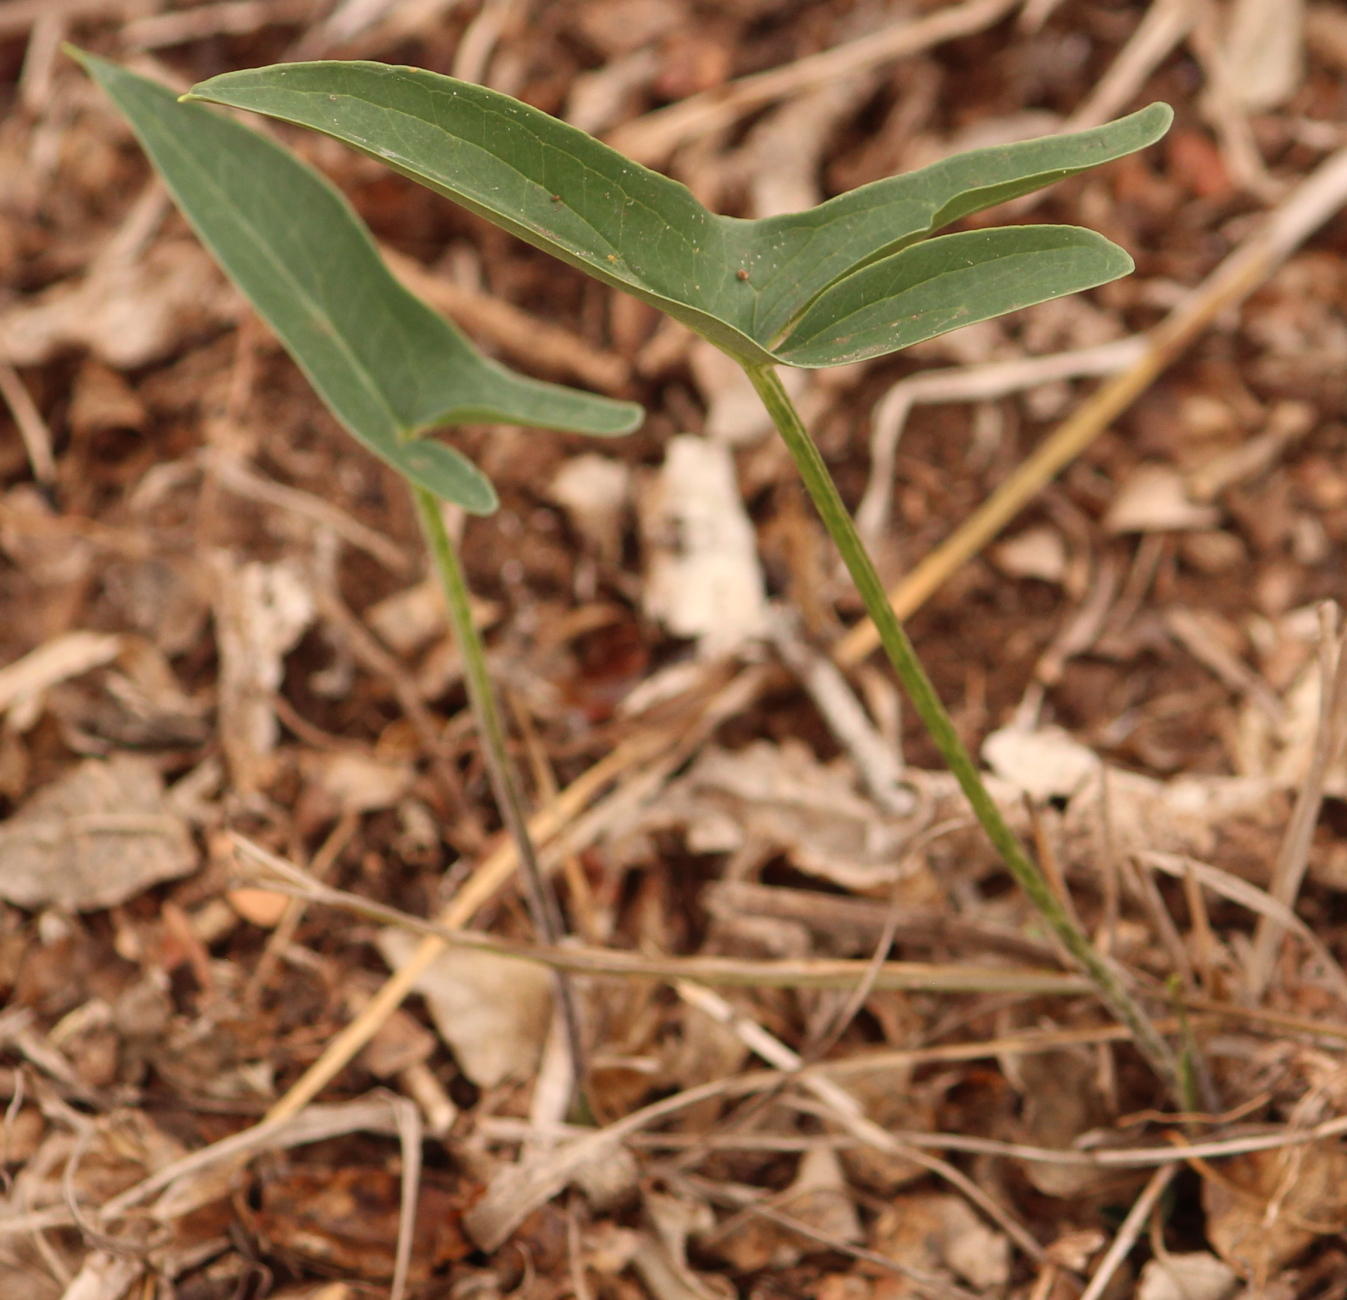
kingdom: Plantae
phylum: Tracheophyta
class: Liliopsida
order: Alismatales
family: Araceae
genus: Stylochaeton
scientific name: Stylochaeton natalensis
